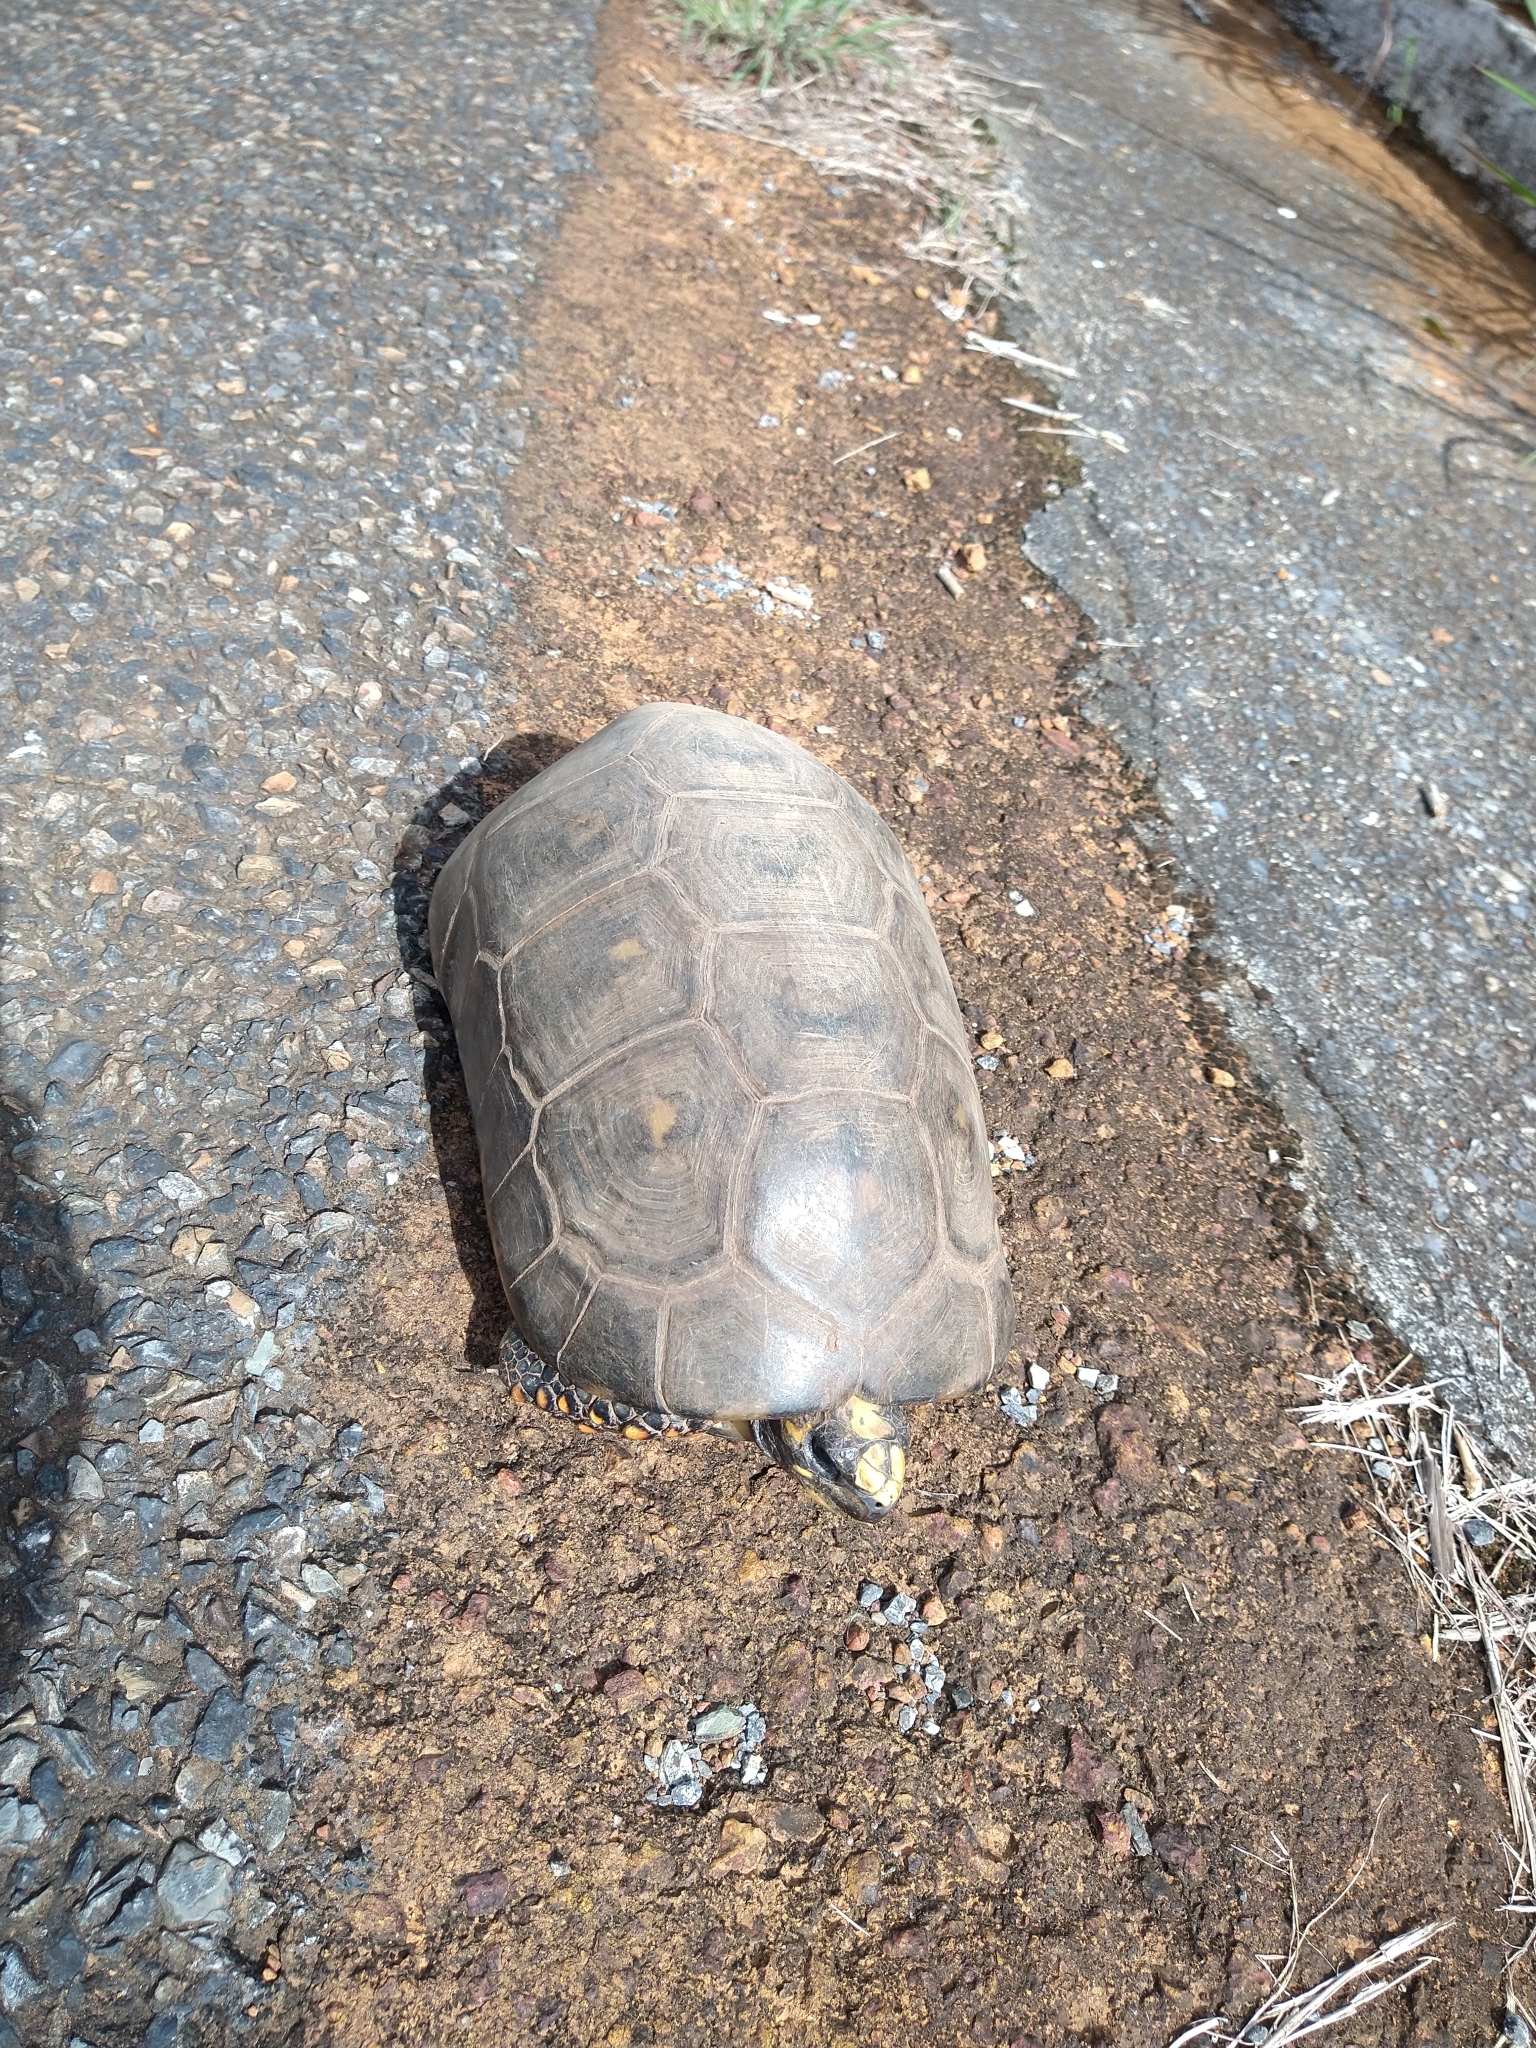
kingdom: Animalia
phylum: Chordata
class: Testudines
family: Testudinidae
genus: Chelonoidis
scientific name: Chelonoidis denticulatus
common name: Yellow-footed tortoise
